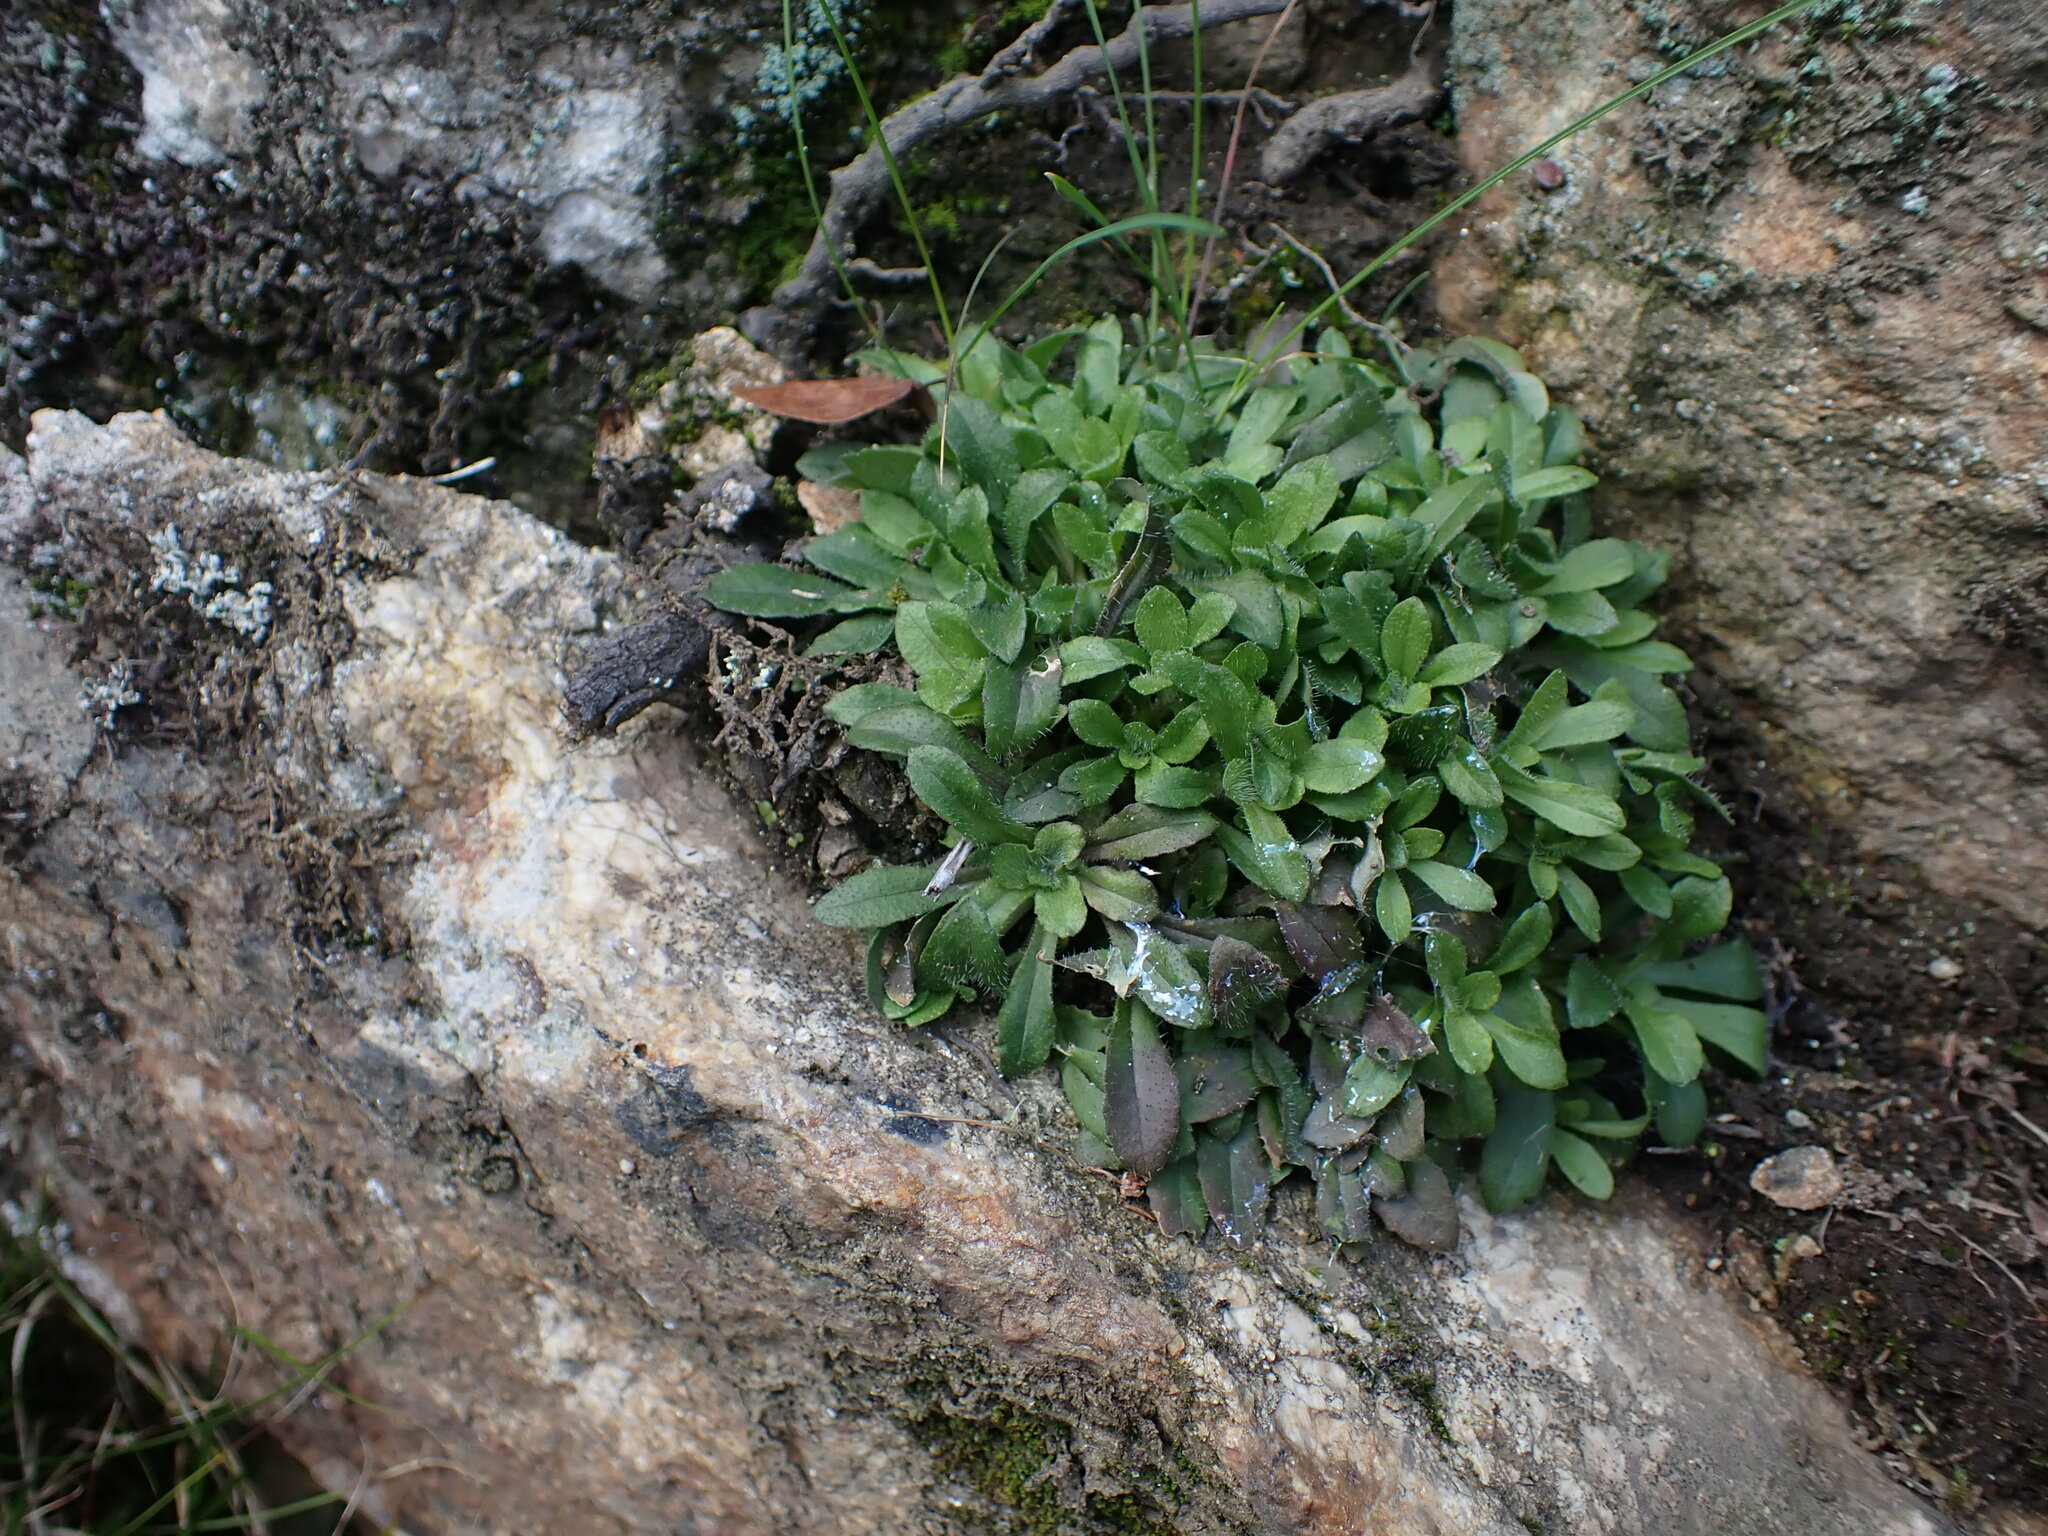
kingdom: Plantae
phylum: Tracheophyta
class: Magnoliopsida
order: Asterales
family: Campanulaceae
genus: Jasione
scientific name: Jasione montana
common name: Sheep's-bit
